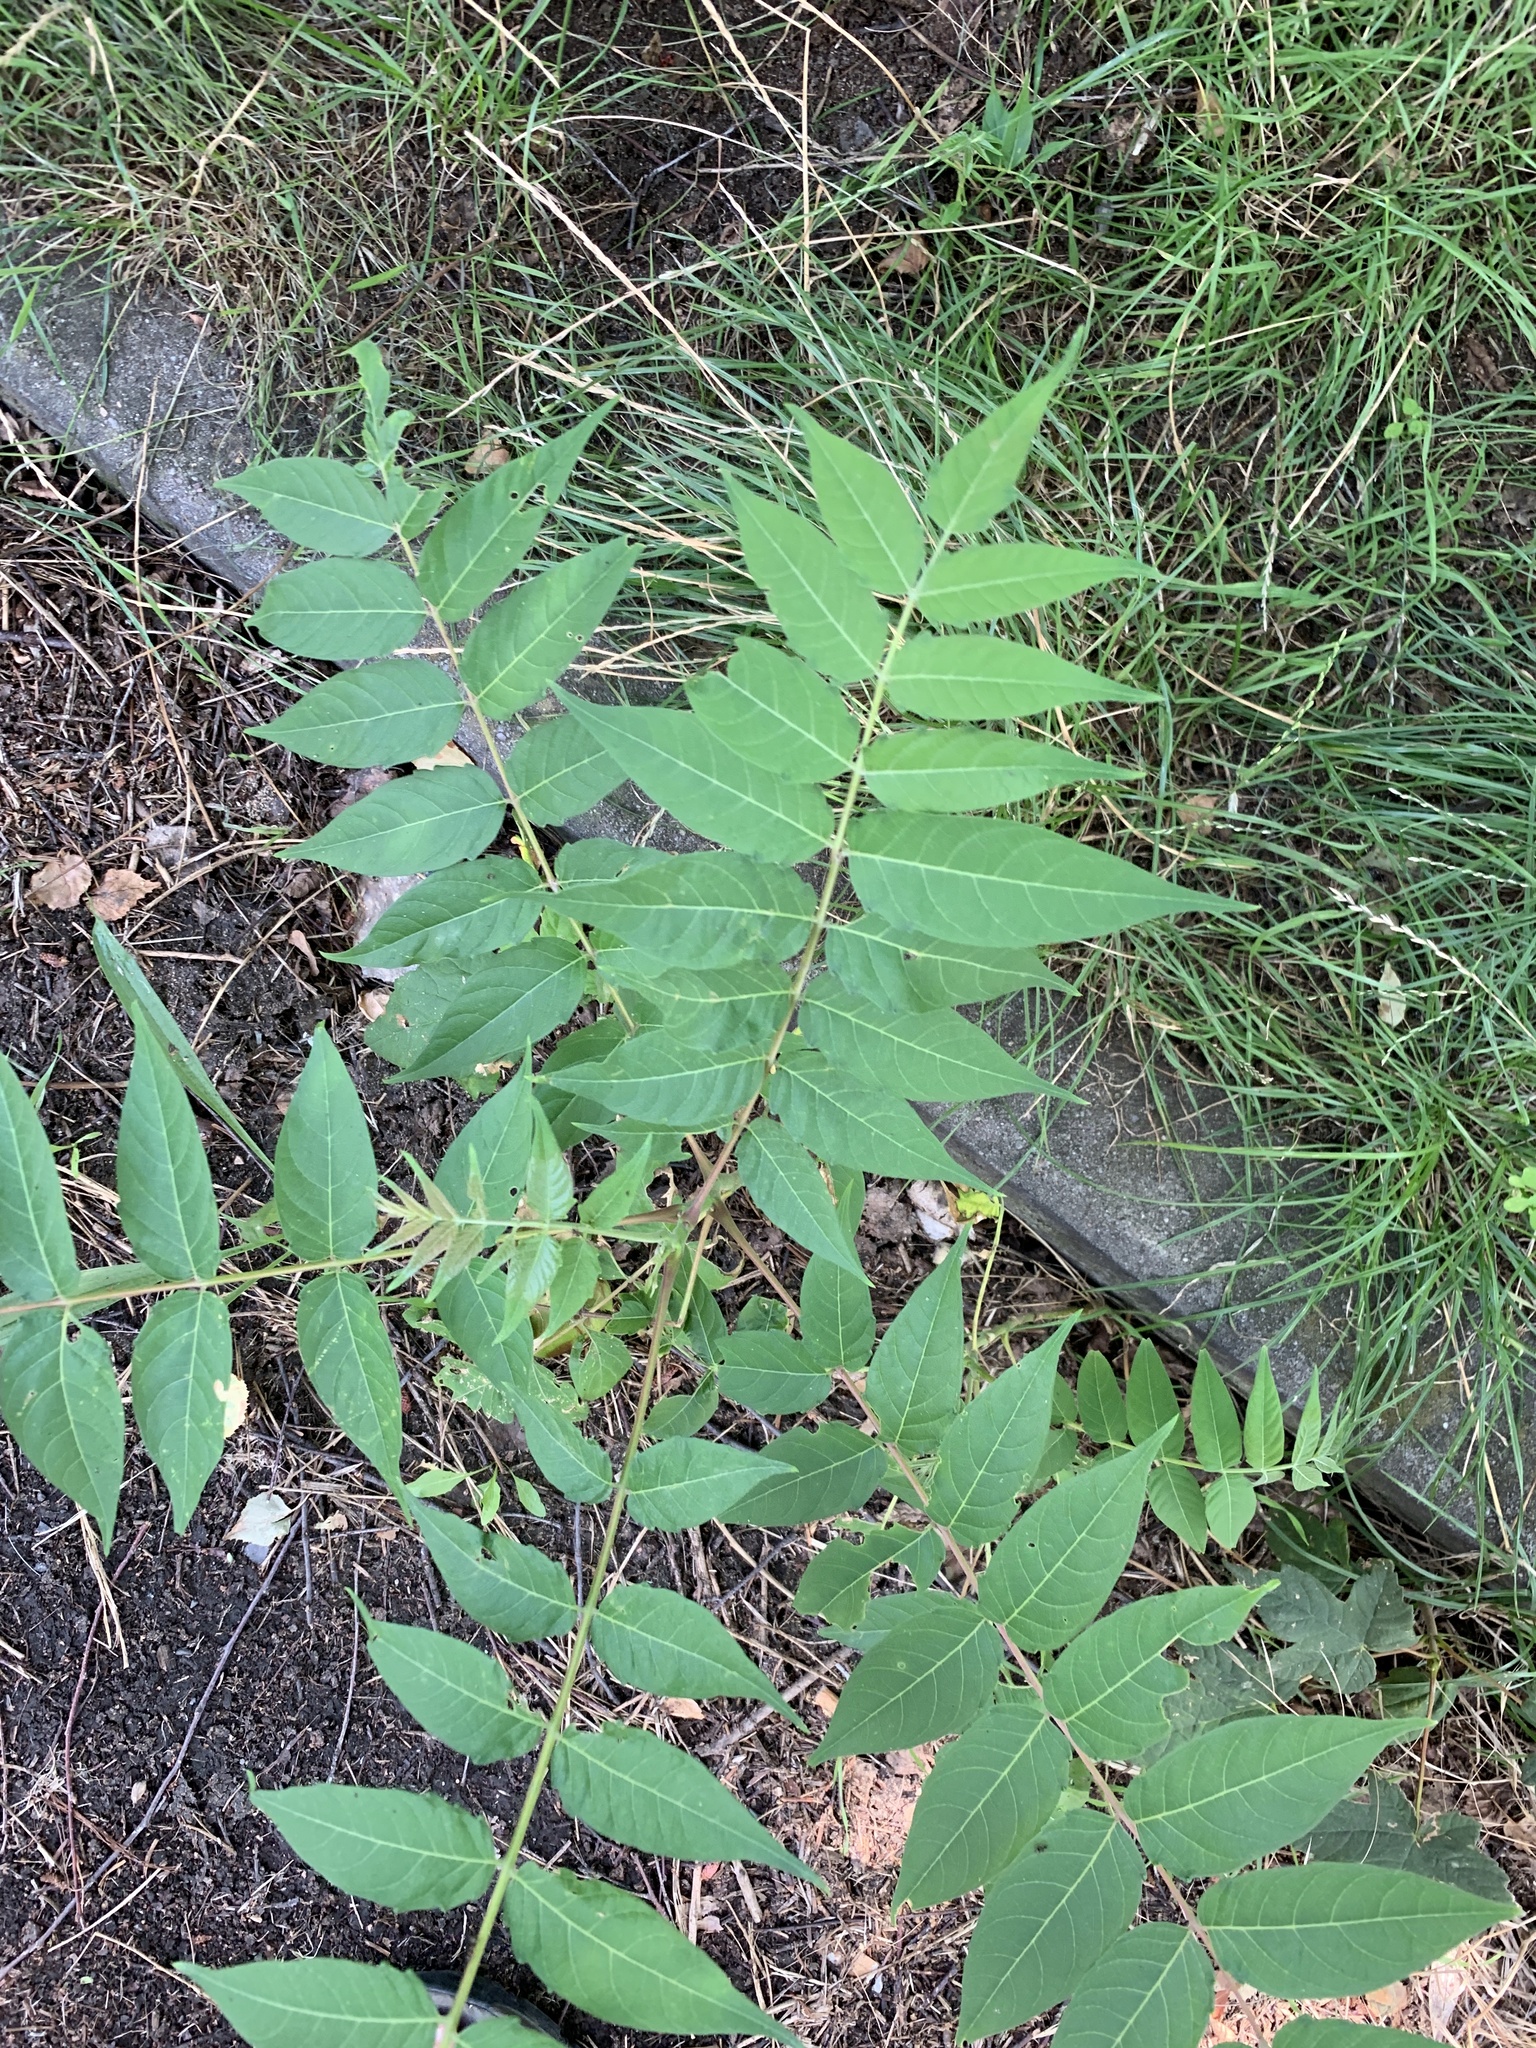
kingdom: Plantae
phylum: Tracheophyta
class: Magnoliopsida
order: Sapindales
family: Simaroubaceae
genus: Ailanthus
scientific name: Ailanthus altissima
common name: Tree-of-heaven
